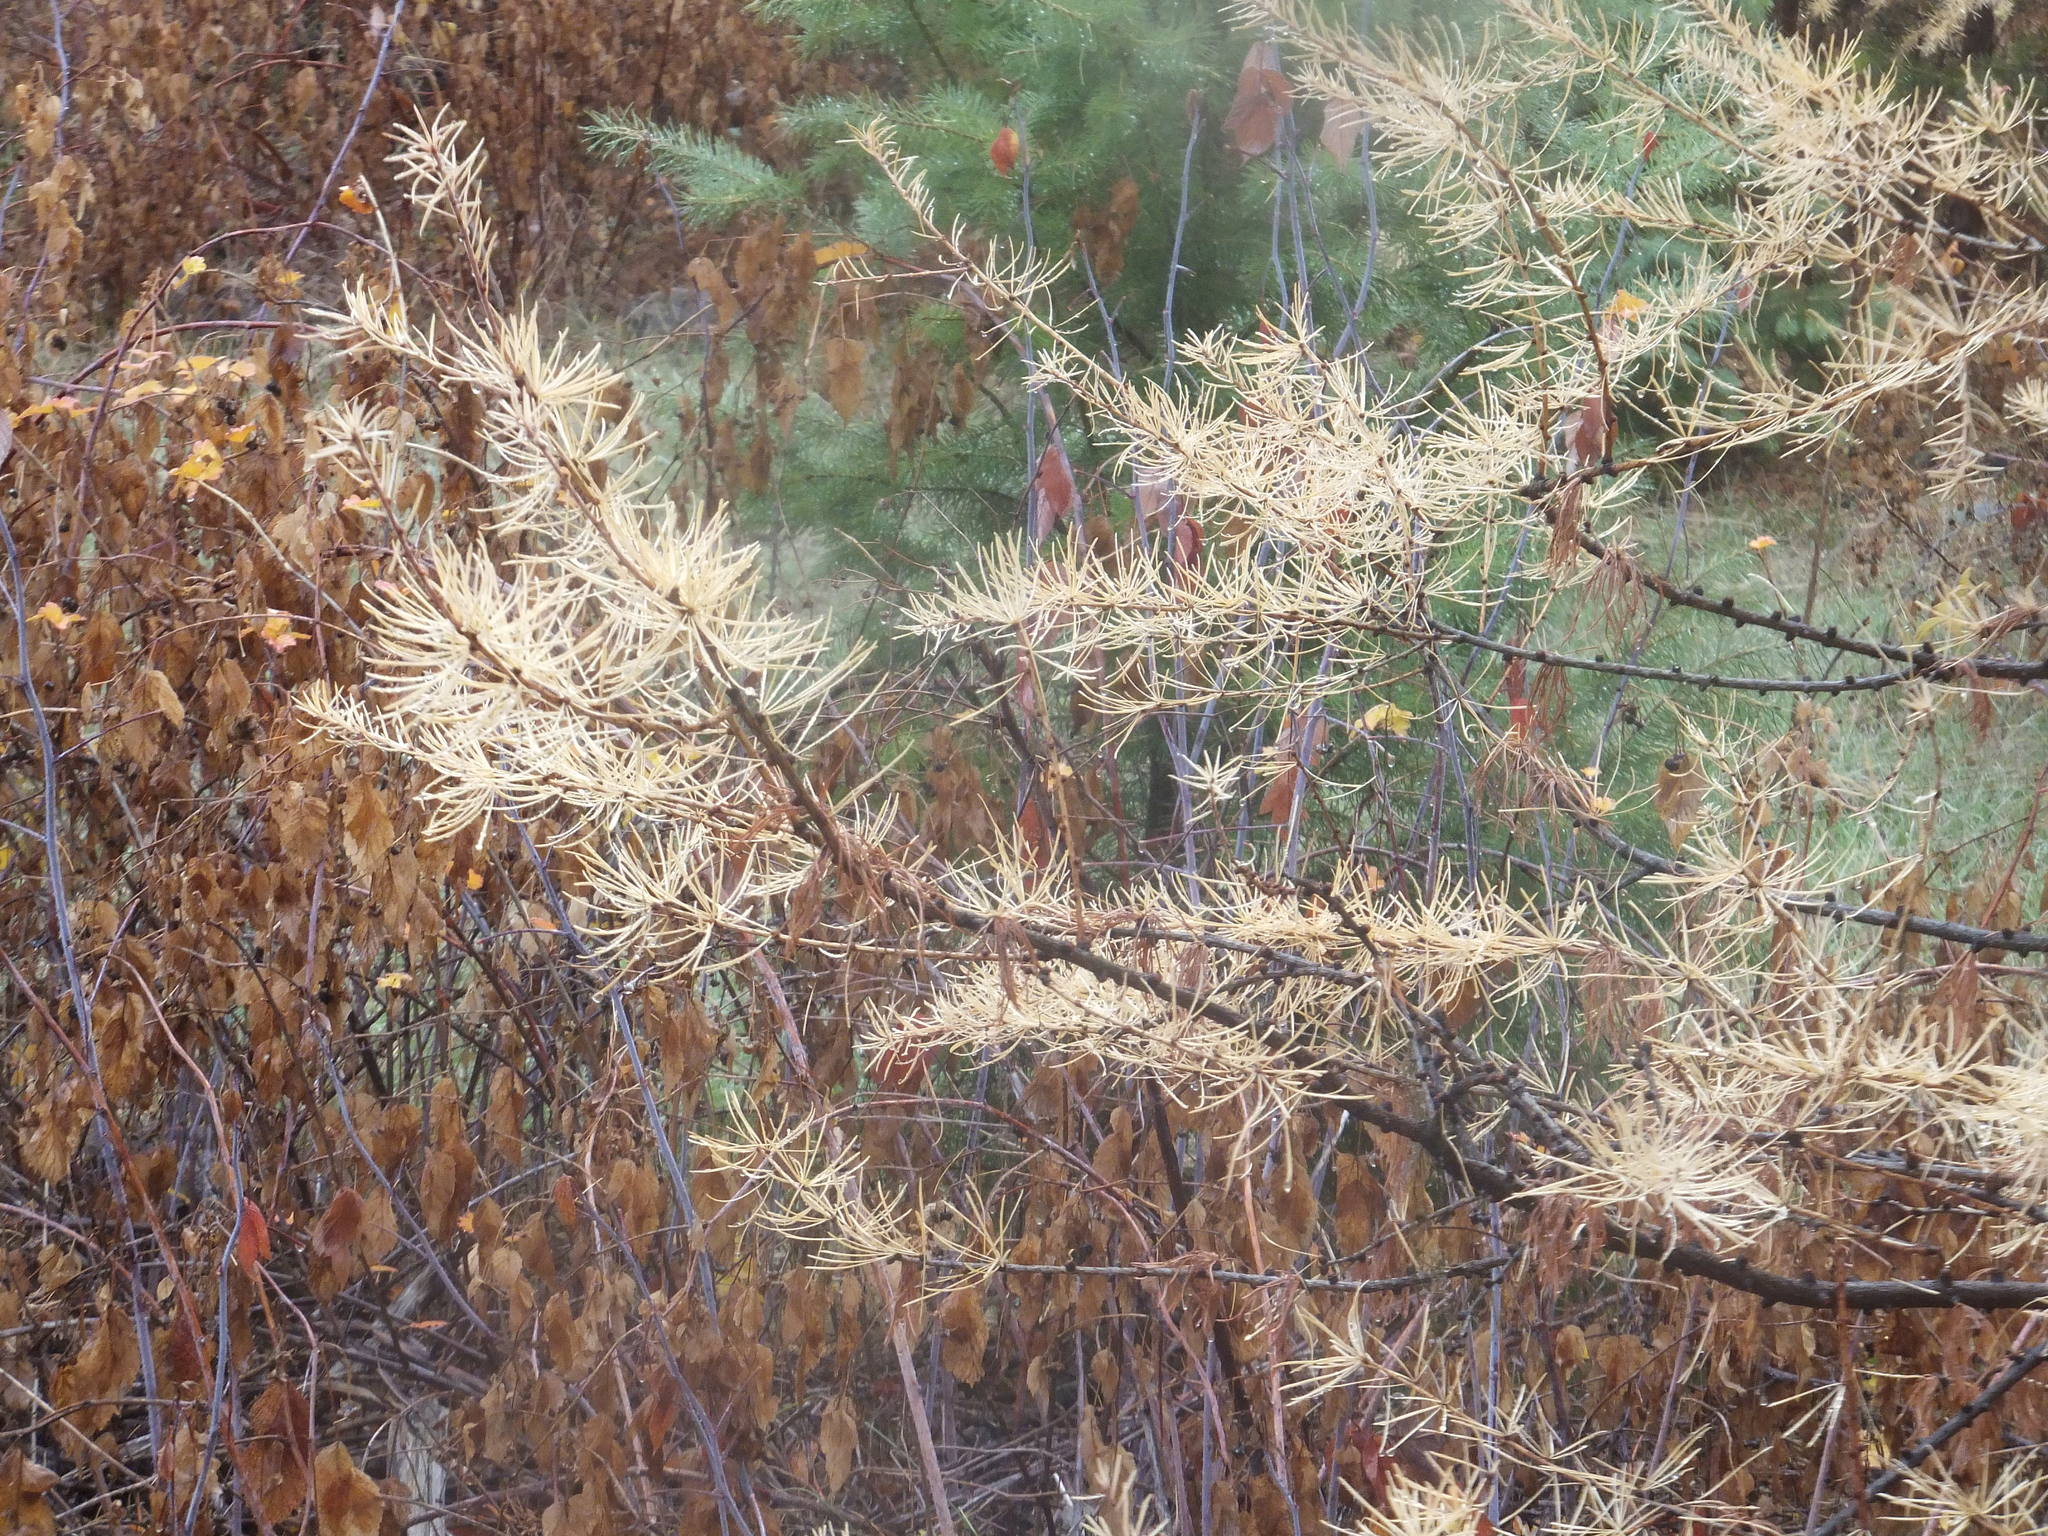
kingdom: Plantae
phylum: Tracheophyta
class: Pinopsida
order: Pinales
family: Pinaceae
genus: Larix
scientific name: Larix occidentalis
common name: Western larch
